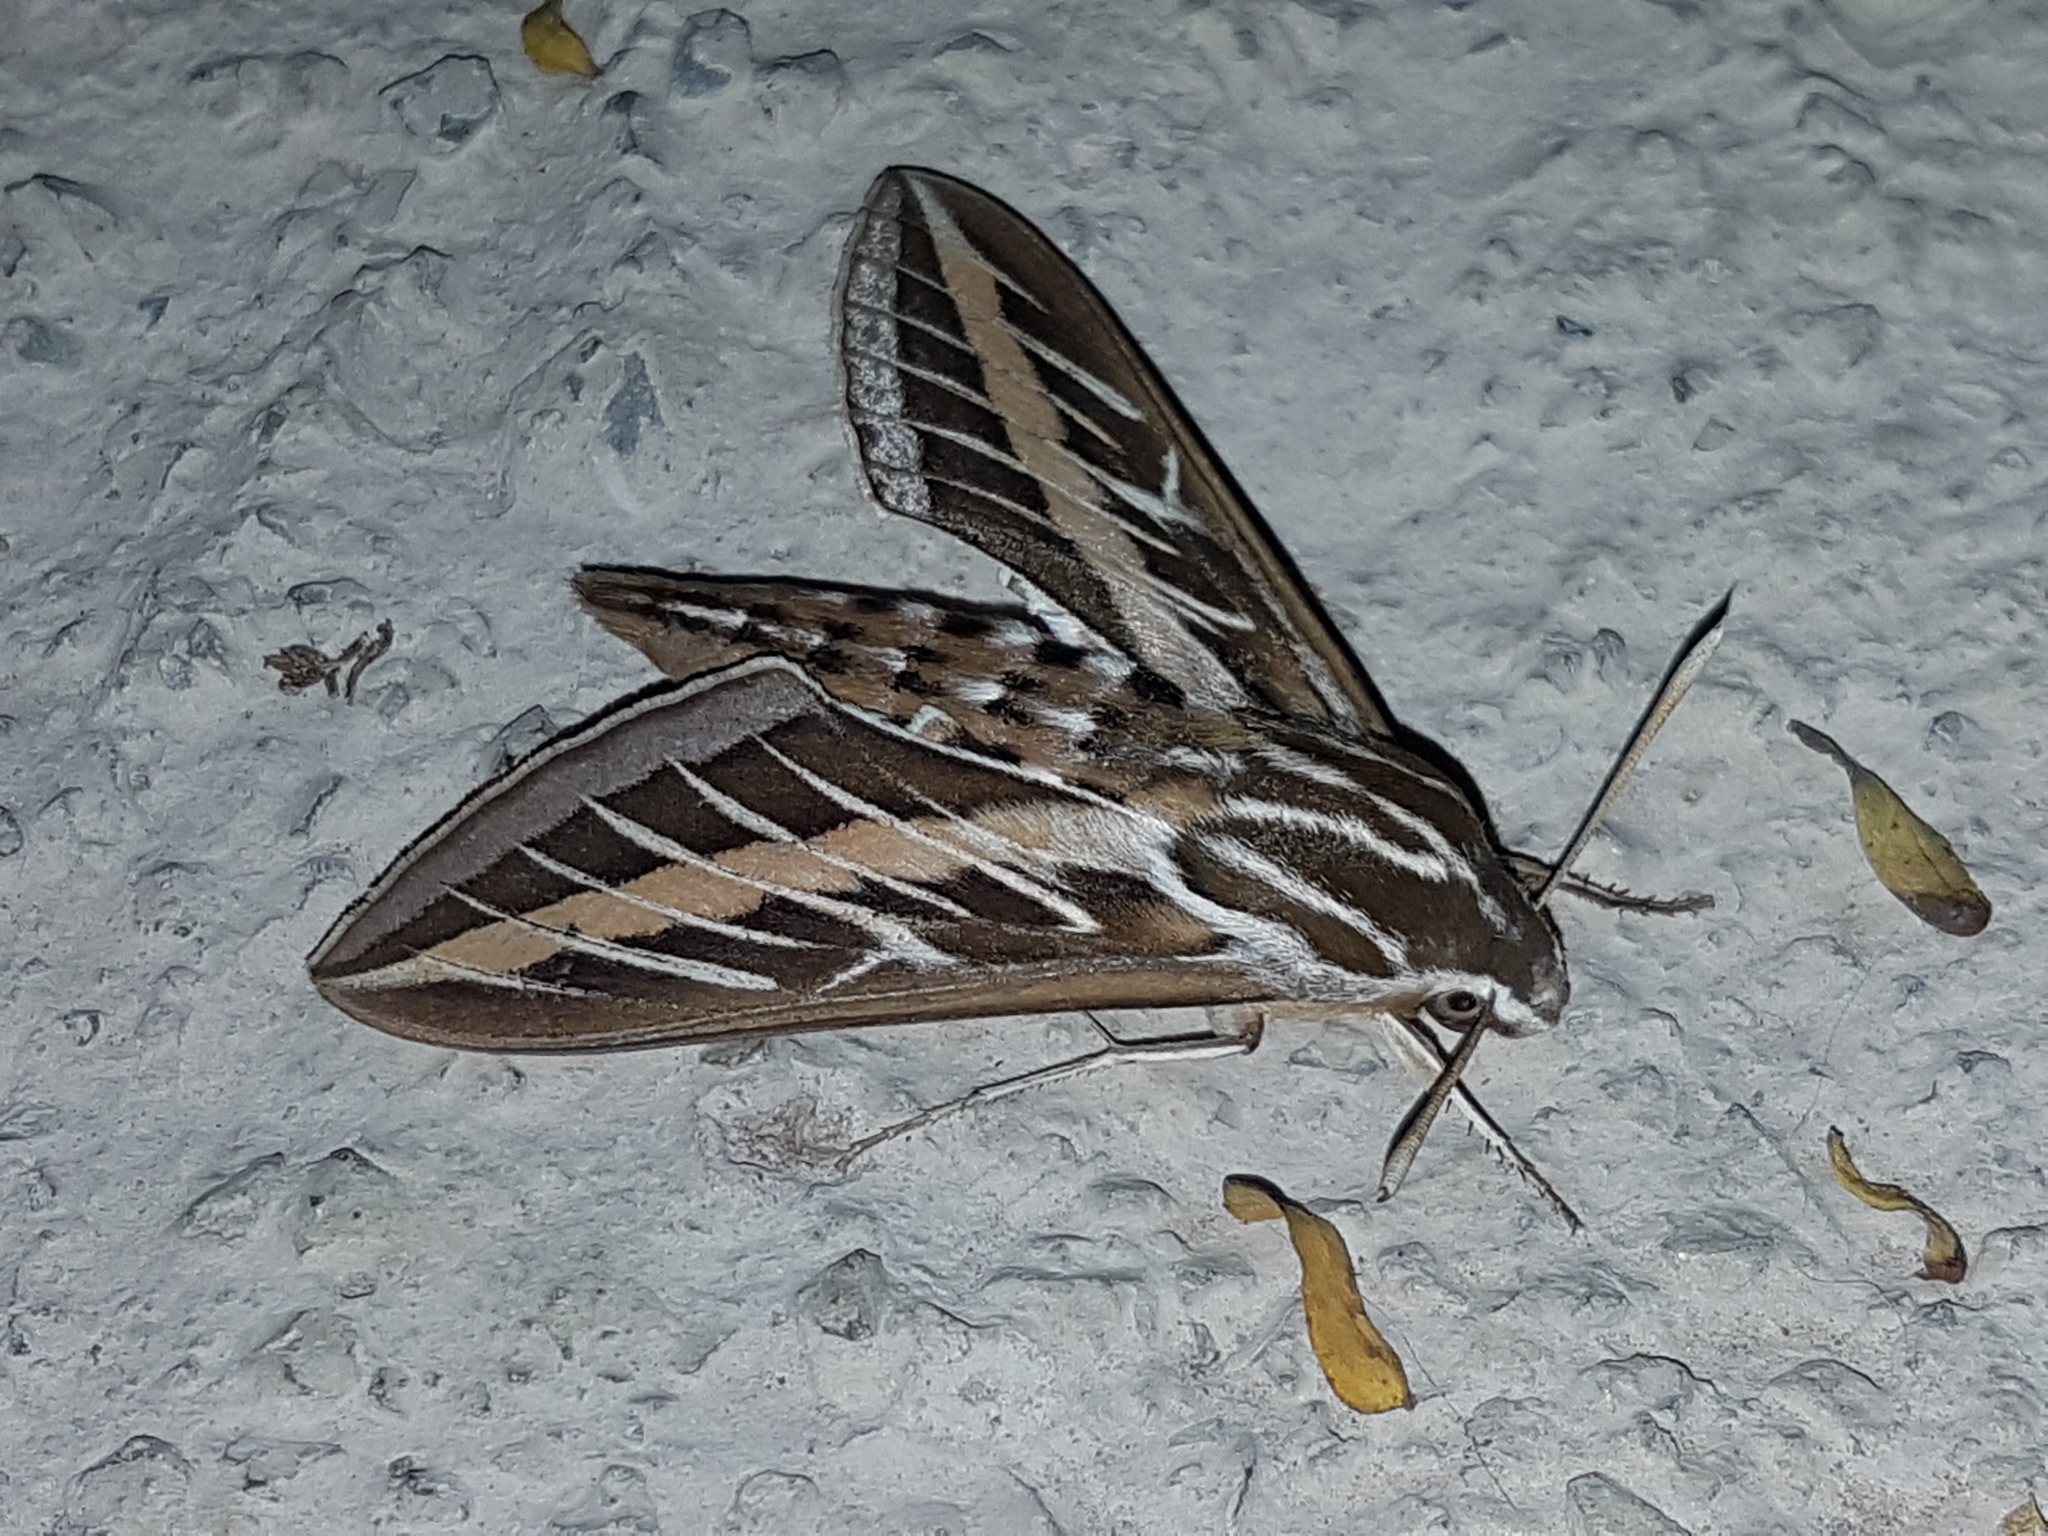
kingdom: Animalia
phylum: Arthropoda
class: Insecta
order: Lepidoptera
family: Sphingidae
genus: Hyles
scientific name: Hyles lineata
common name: White-lined sphinx
